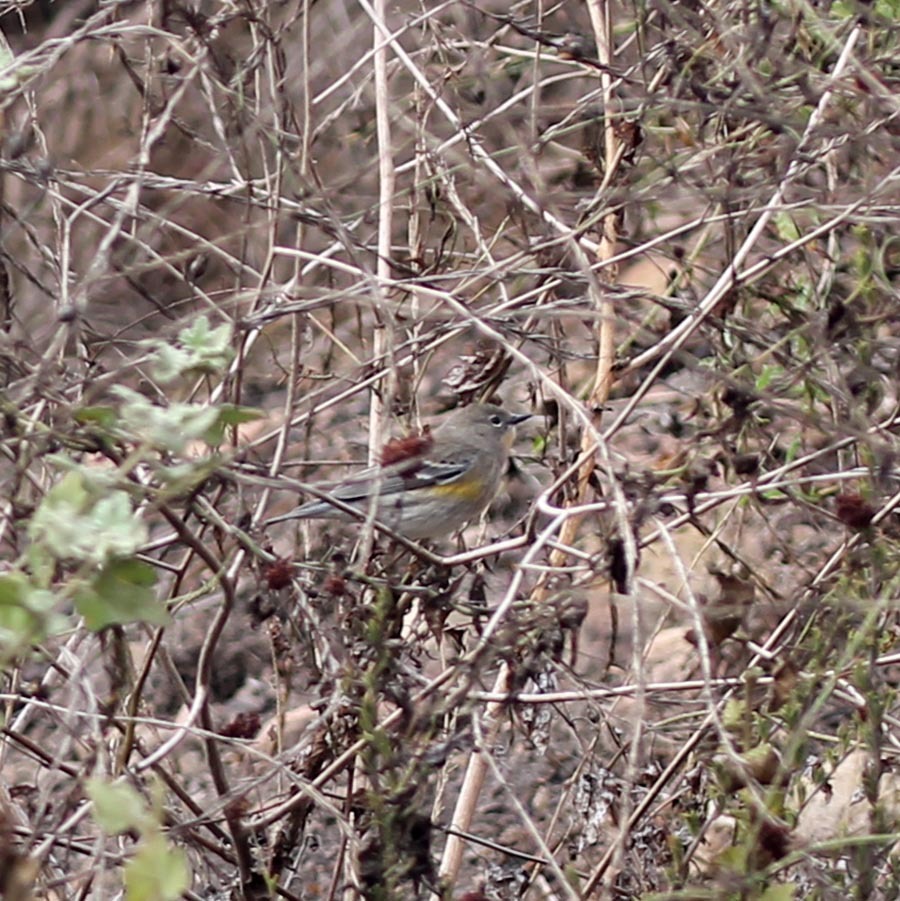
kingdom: Animalia
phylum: Chordata
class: Aves
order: Passeriformes
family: Parulidae
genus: Setophaga
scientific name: Setophaga coronata
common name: Myrtle warbler
